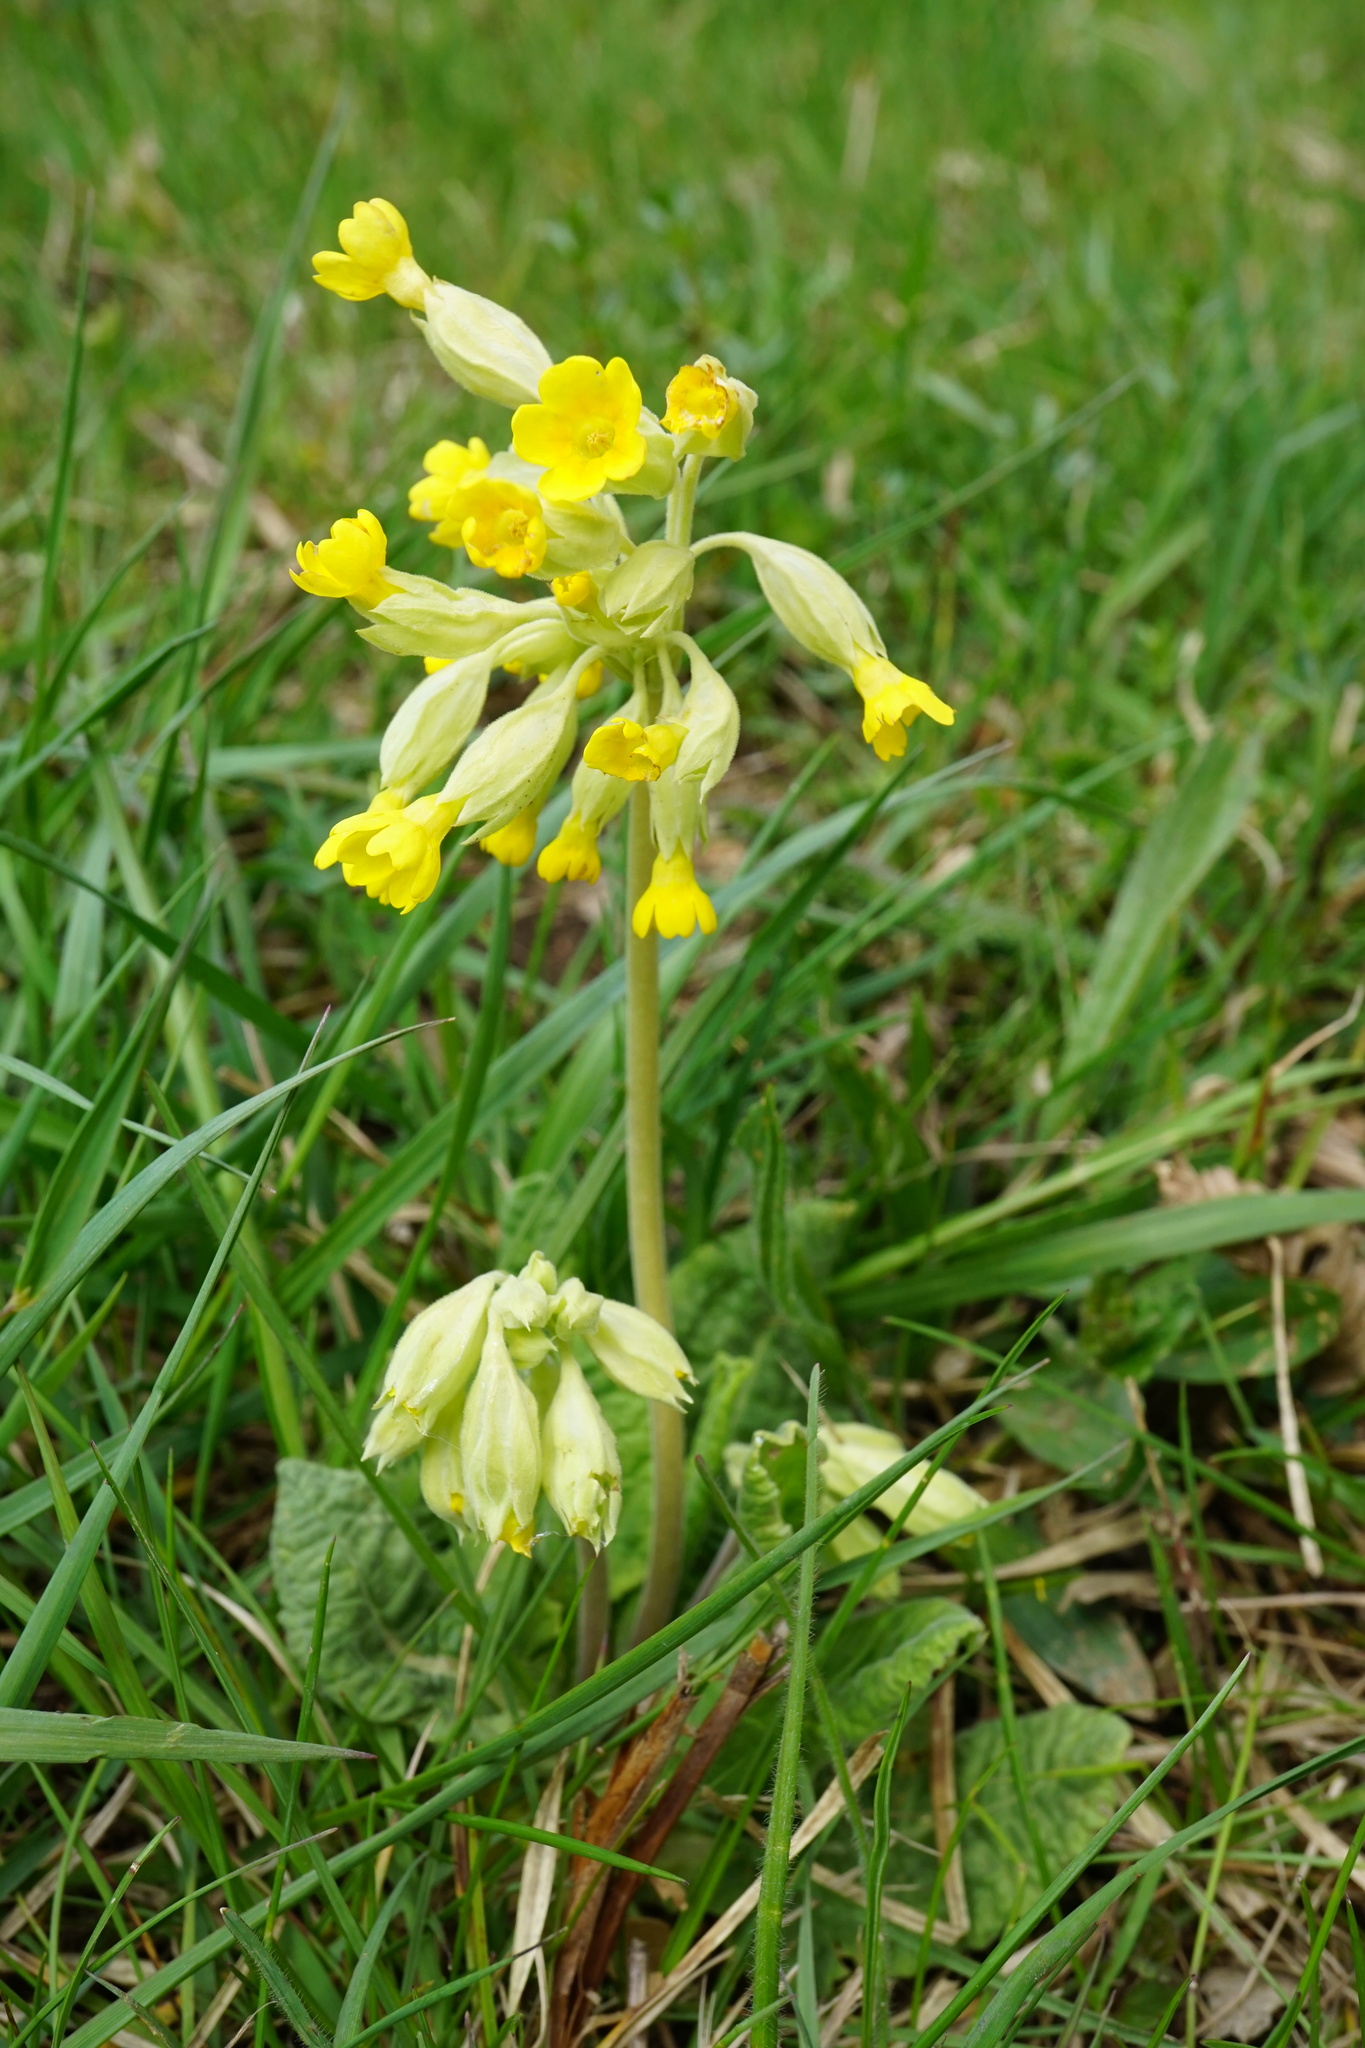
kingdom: Plantae
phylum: Tracheophyta
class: Magnoliopsida
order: Ericales
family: Primulaceae
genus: Primula
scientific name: Primula veris
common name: Cowslip
